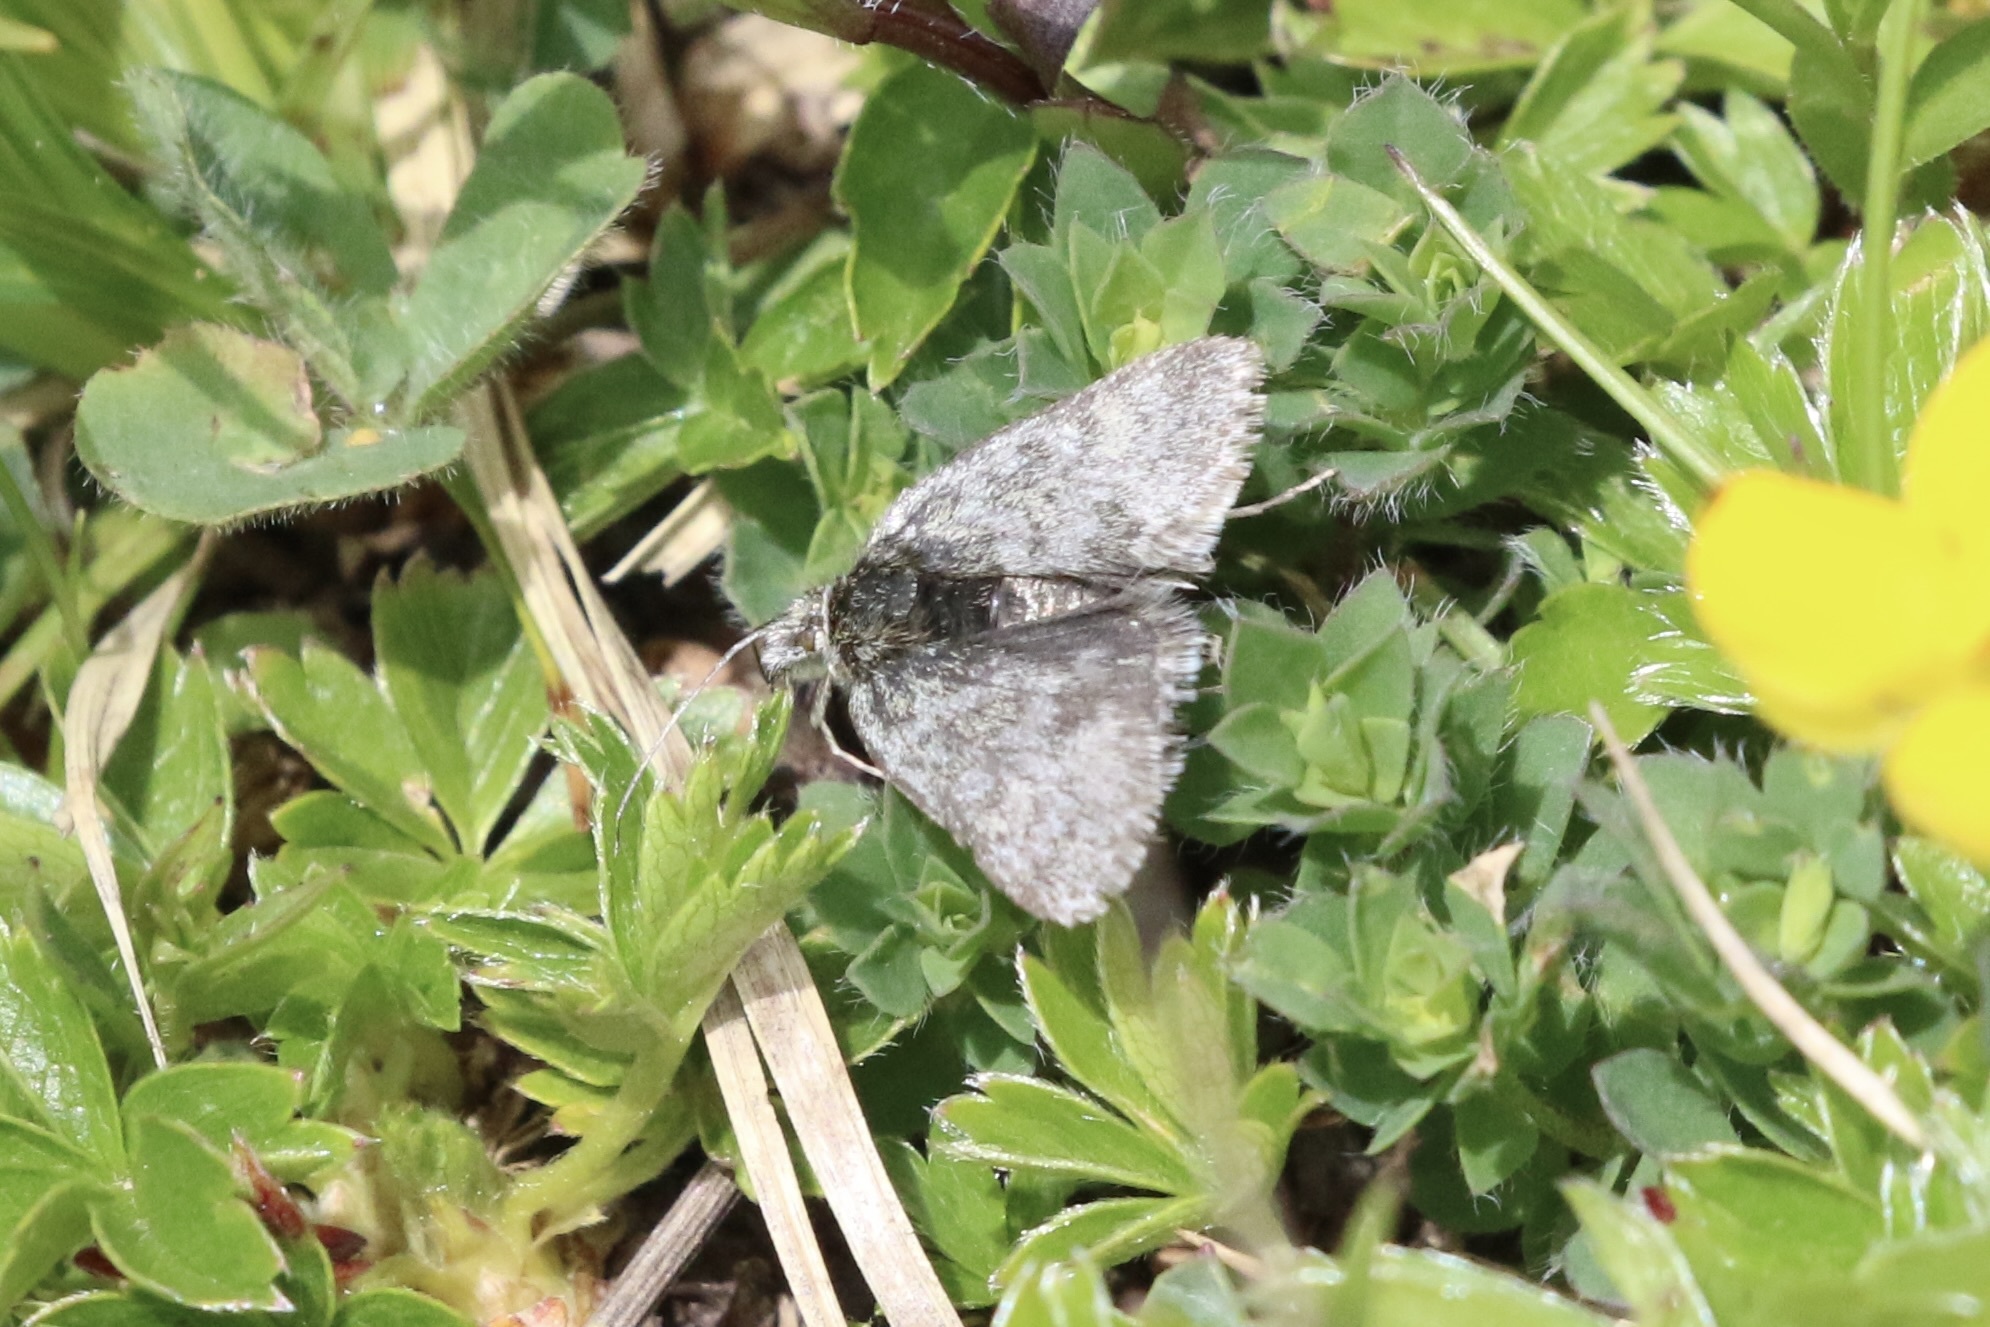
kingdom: Animalia
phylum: Arthropoda
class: Insecta
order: Lepidoptera
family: Crambidae
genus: Metaxmeste
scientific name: Metaxmeste phrygialis
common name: Black mountain pearl
